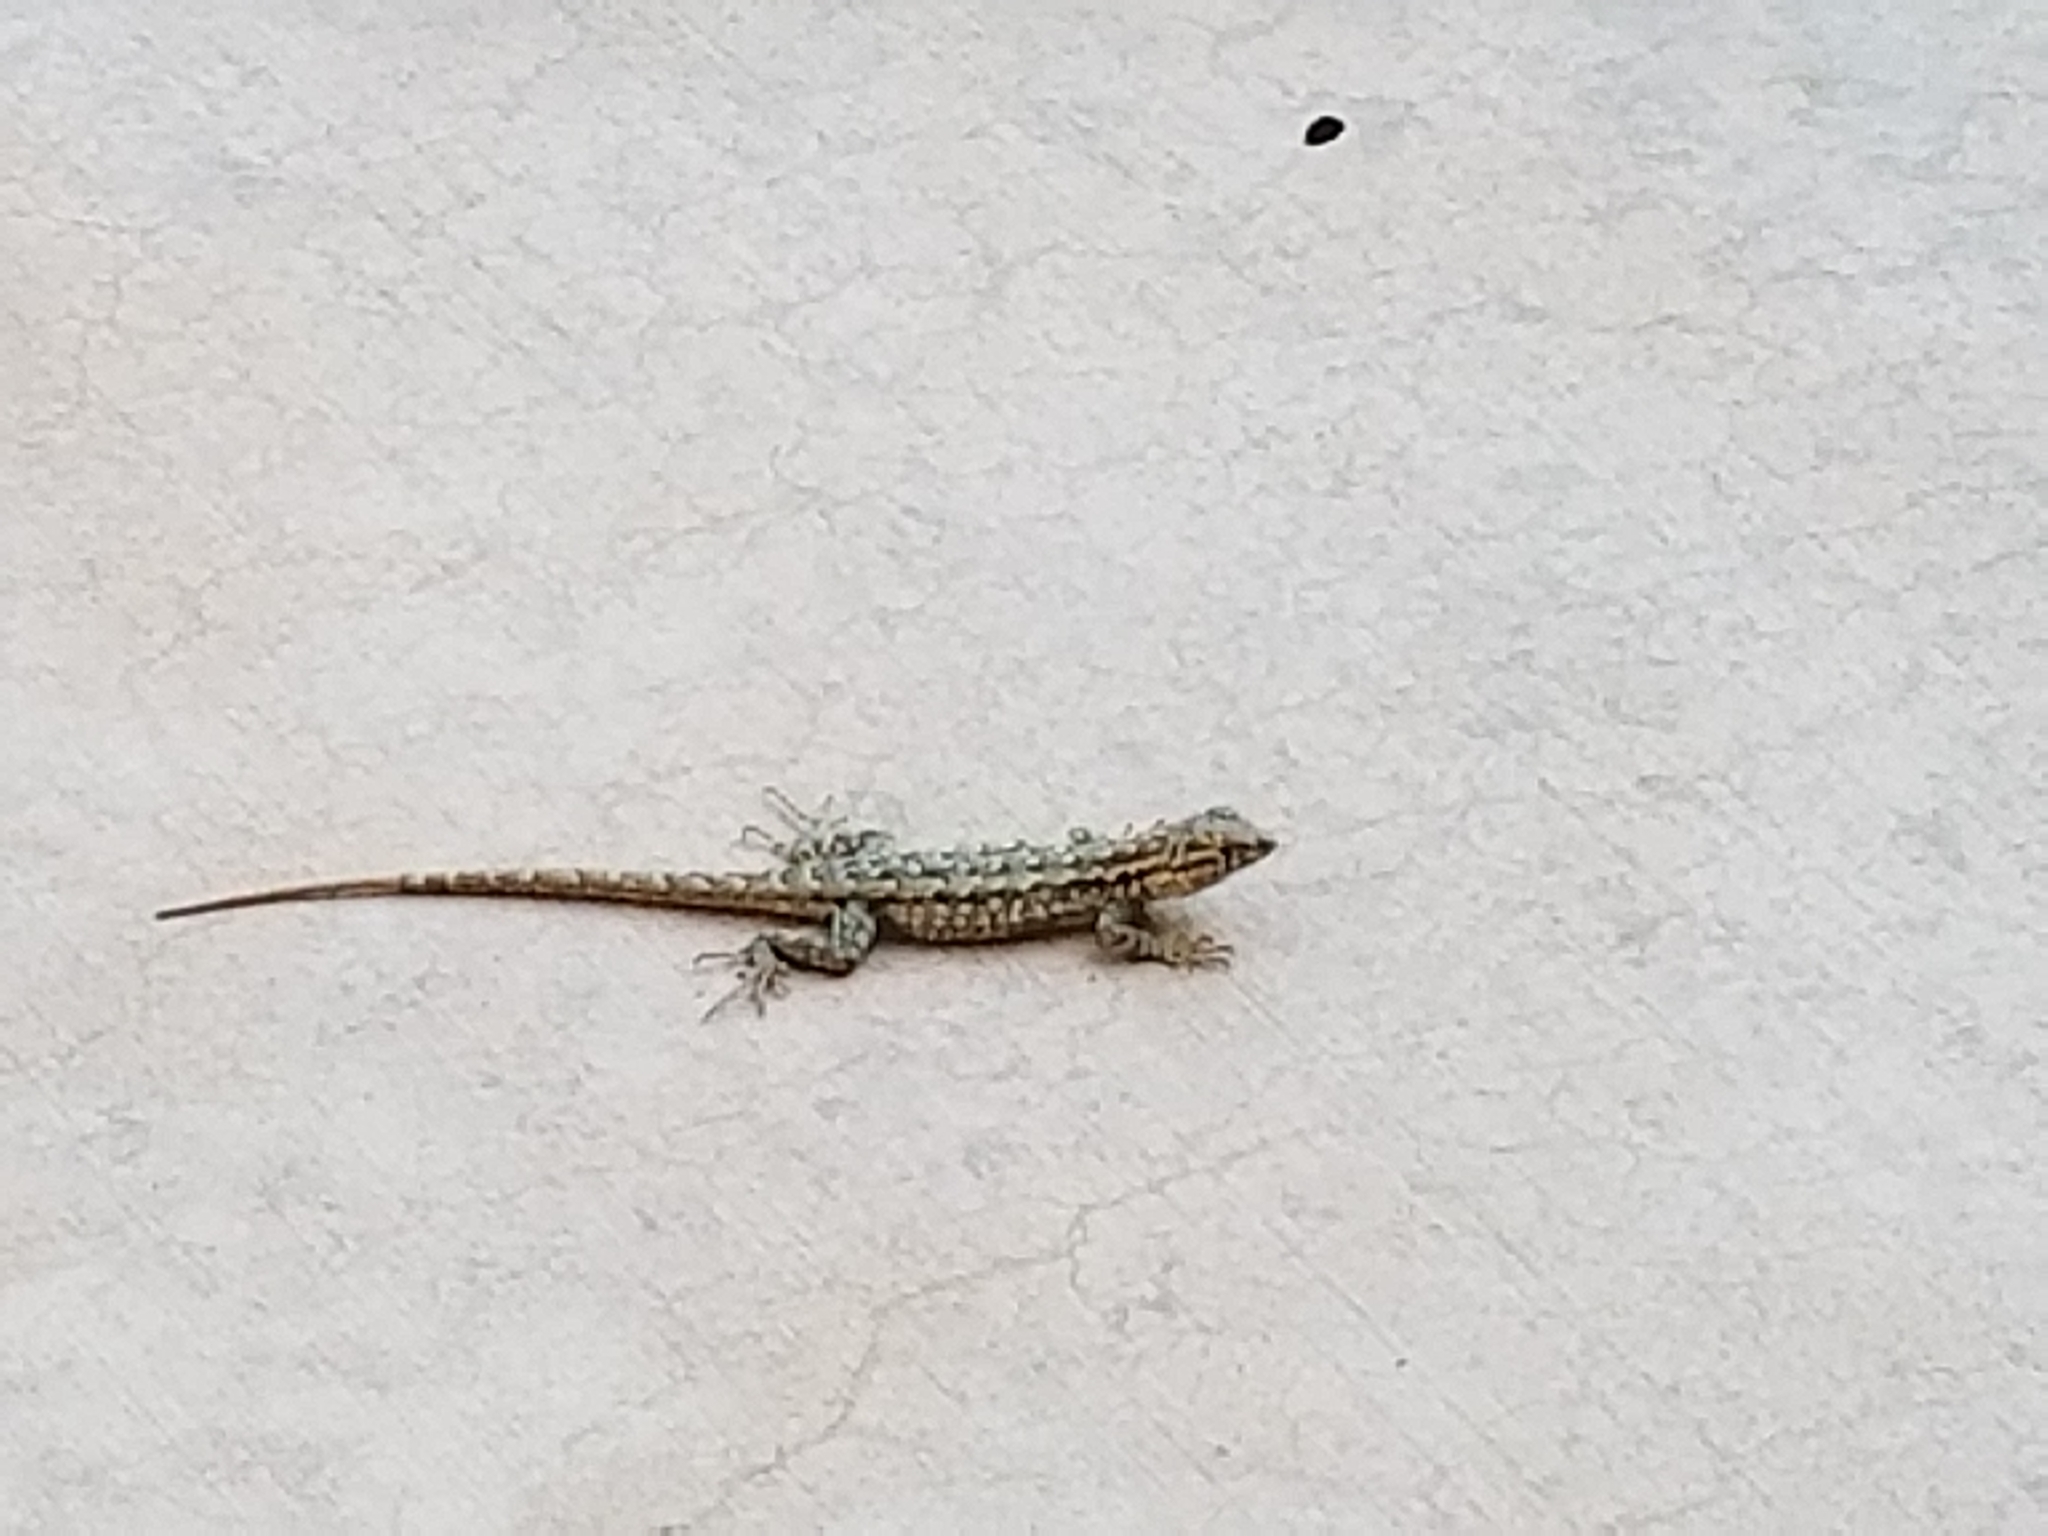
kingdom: Animalia
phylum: Chordata
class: Squamata
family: Phrynosomatidae
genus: Uta
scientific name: Uta stansburiana
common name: Side-blotched lizard
